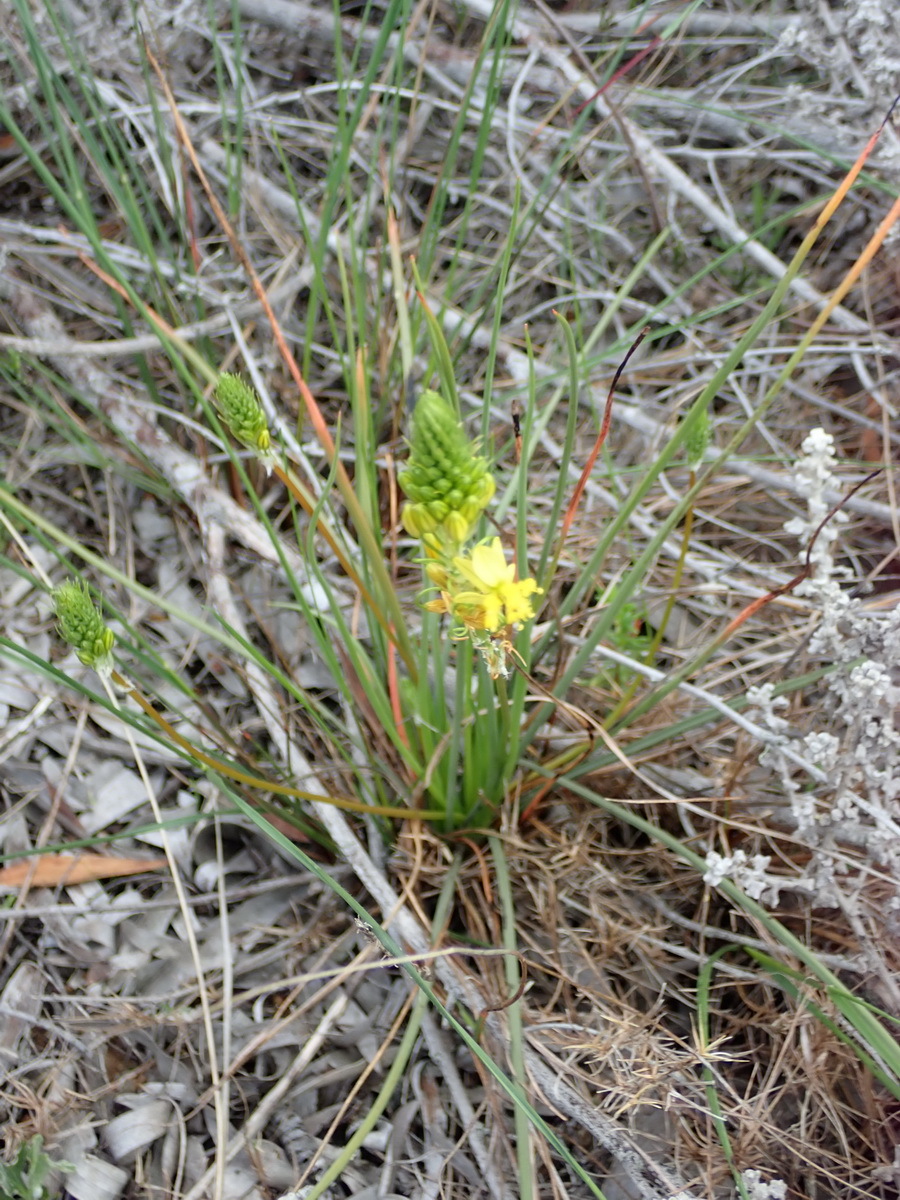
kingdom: Plantae
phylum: Tracheophyta
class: Liliopsida
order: Asparagales
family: Asphodelaceae
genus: Bulbine
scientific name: Bulbine lagopus
